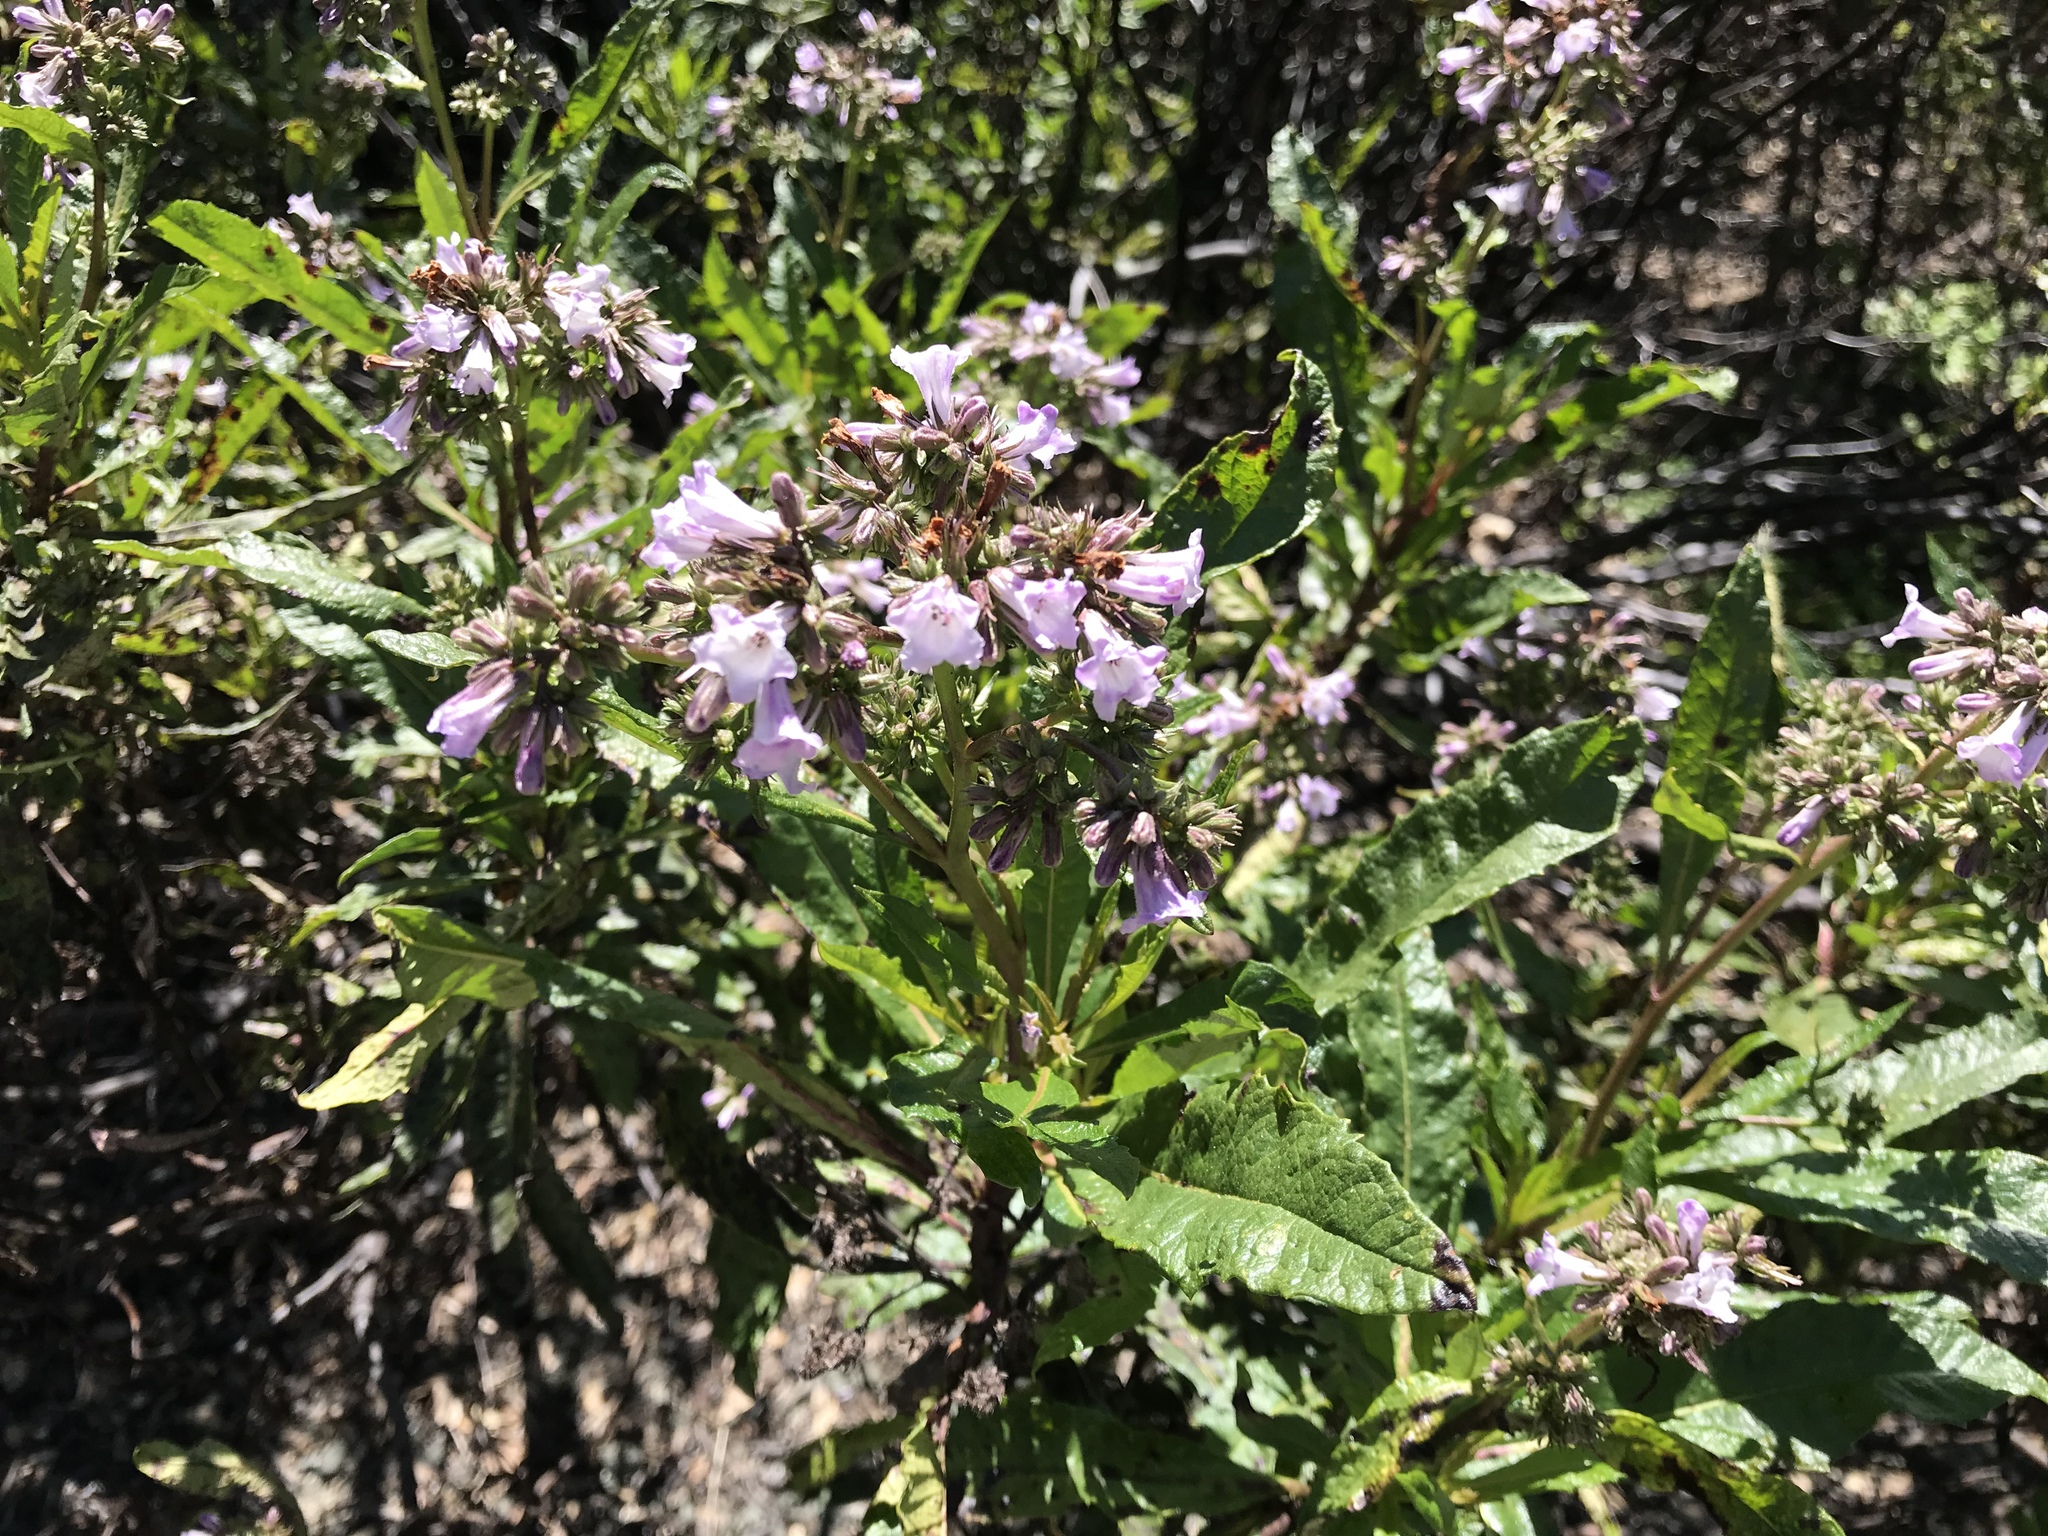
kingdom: Plantae
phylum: Tracheophyta
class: Magnoliopsida
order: Boraginales
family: Namaceae
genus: Eriodictyon
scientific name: Eriodictyon californicum
